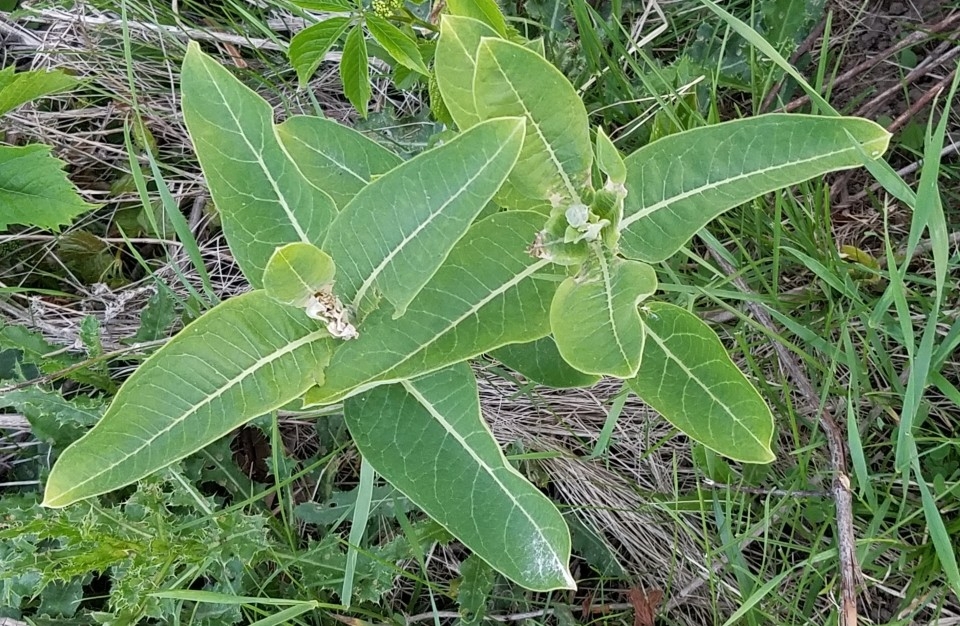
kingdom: Plantae
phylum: Tracheophyta
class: Magnoliopsida
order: Gentianales
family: Apocynaceae
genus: Asclepias
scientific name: Asclepias syriaca
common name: Common milkweed
